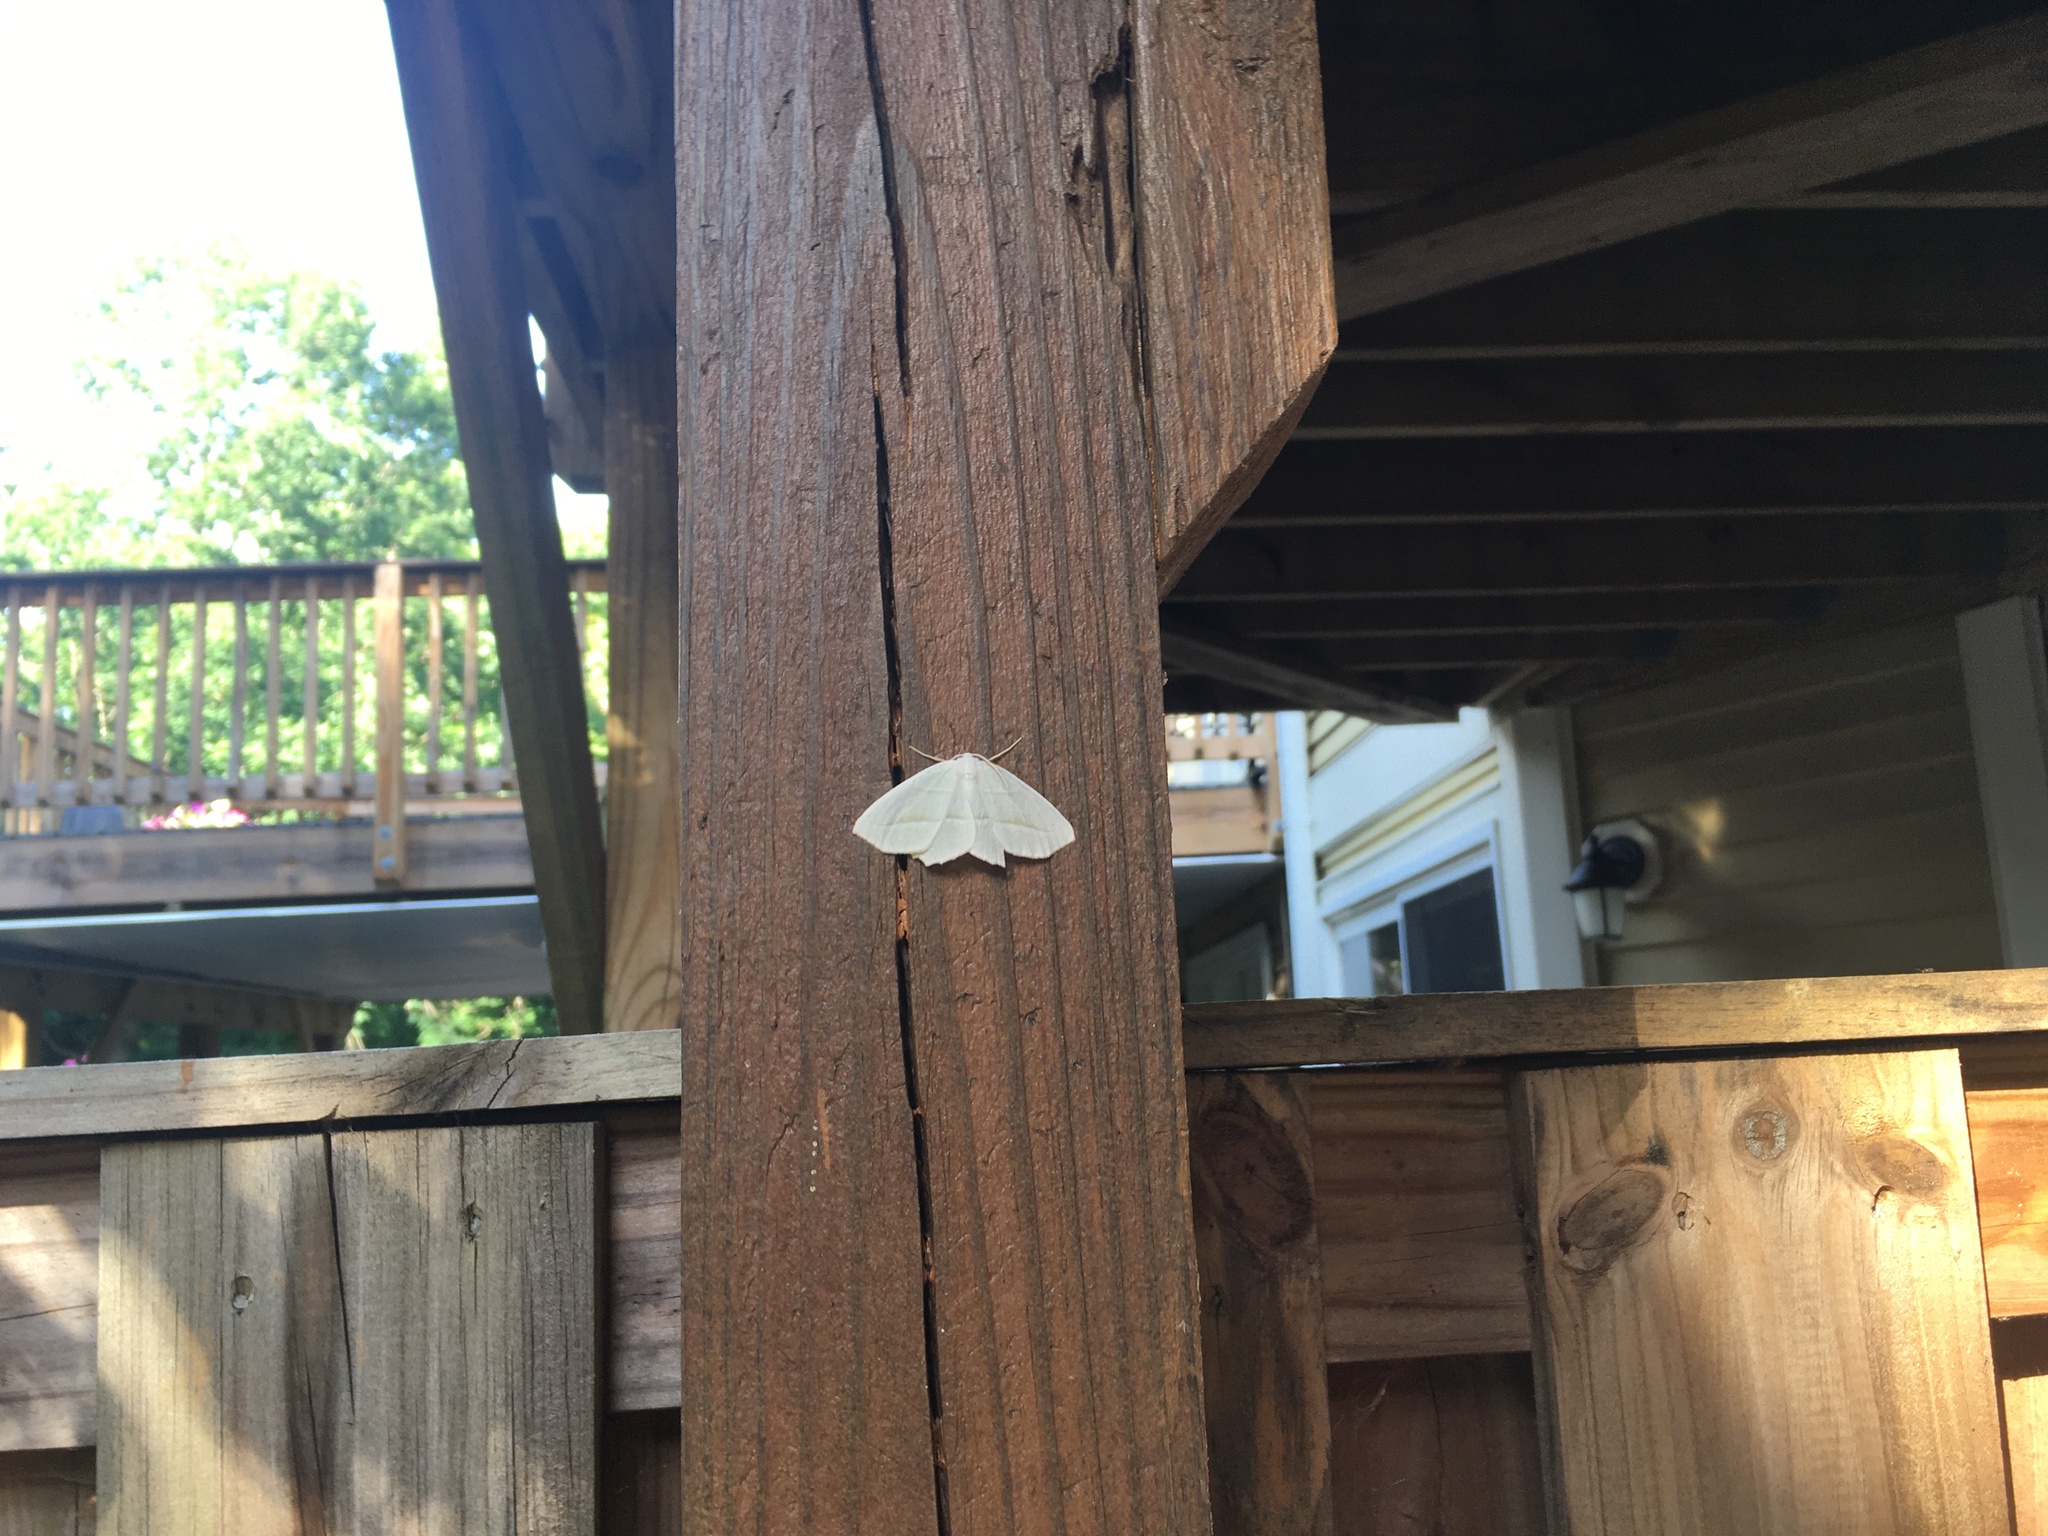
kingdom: Animalia
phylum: Arthropoda
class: Insecta
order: Lepidoptera
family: Geometridae
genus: Campaea
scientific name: Campaea perlata
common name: Fringed looper
